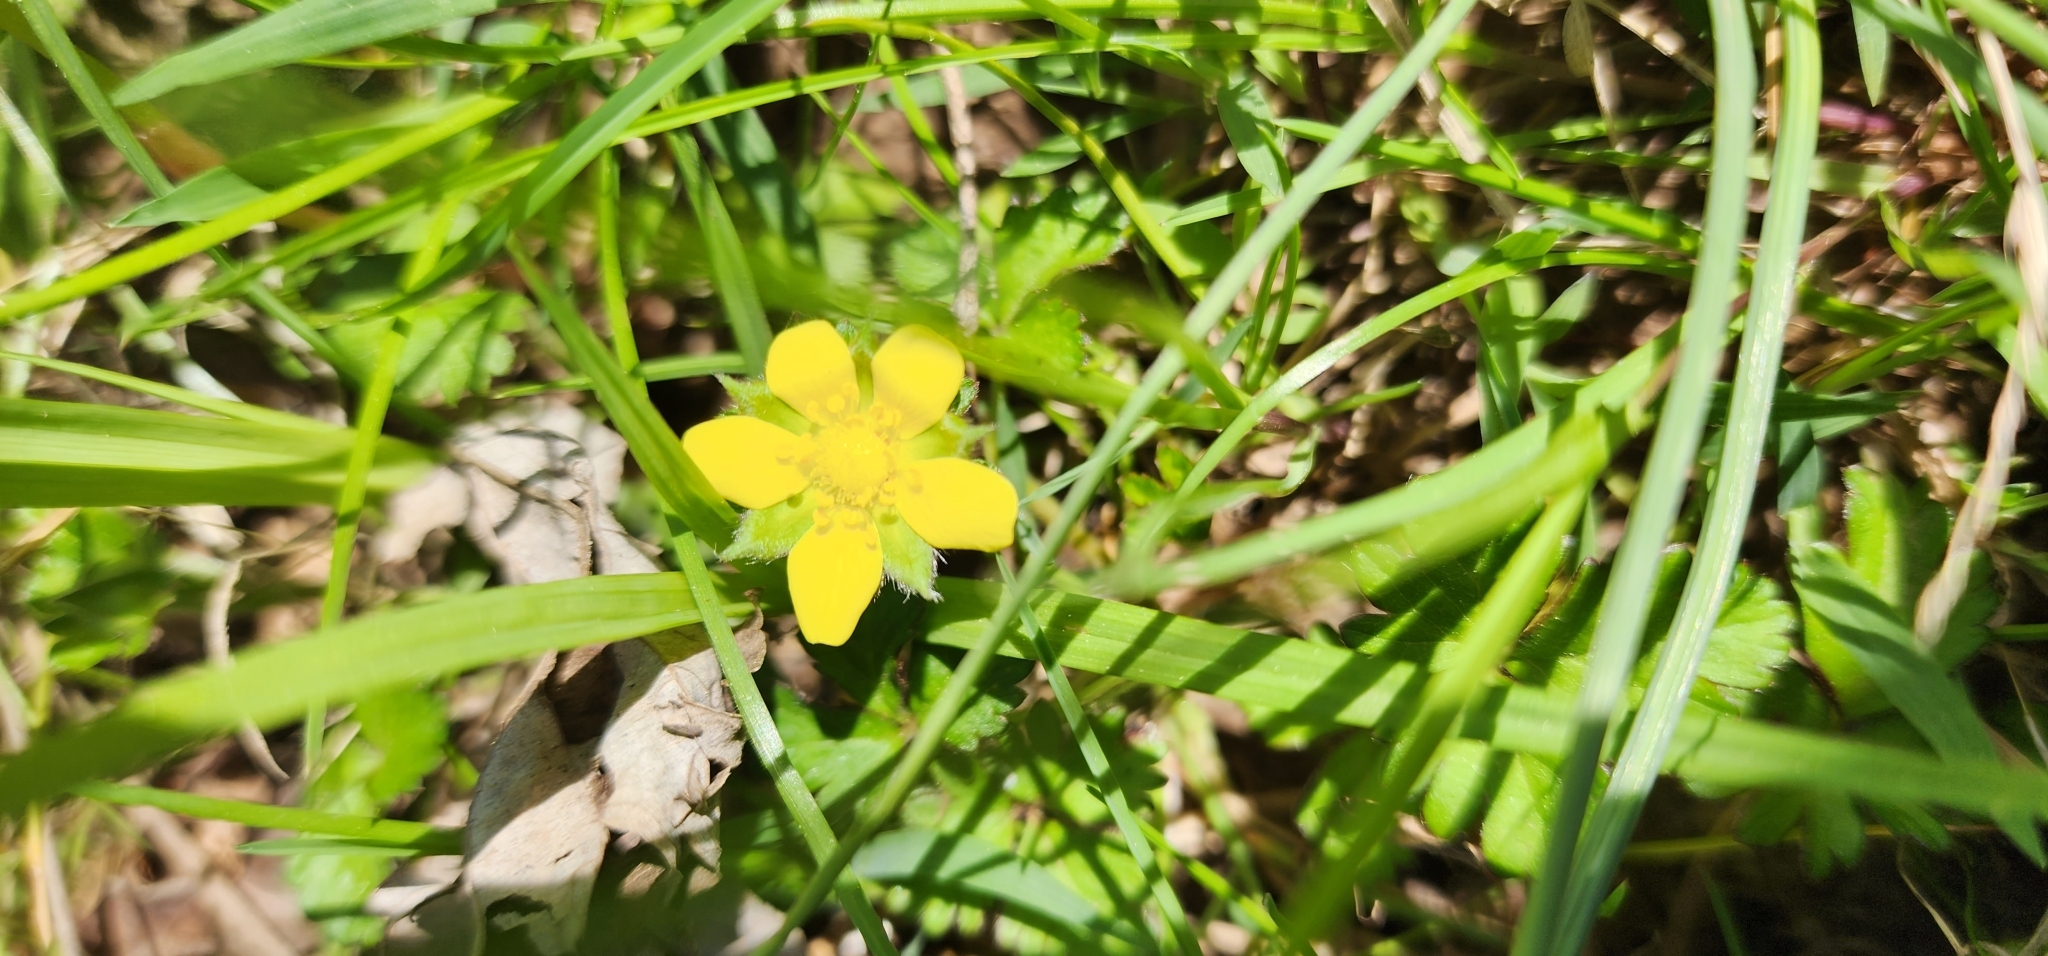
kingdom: Plantae
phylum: Tracheophyta
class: Magnoliopsida
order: Rosales
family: Rosaceae
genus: Potentilla
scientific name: Potentilla indica
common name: Yellow-flowered strawberry
